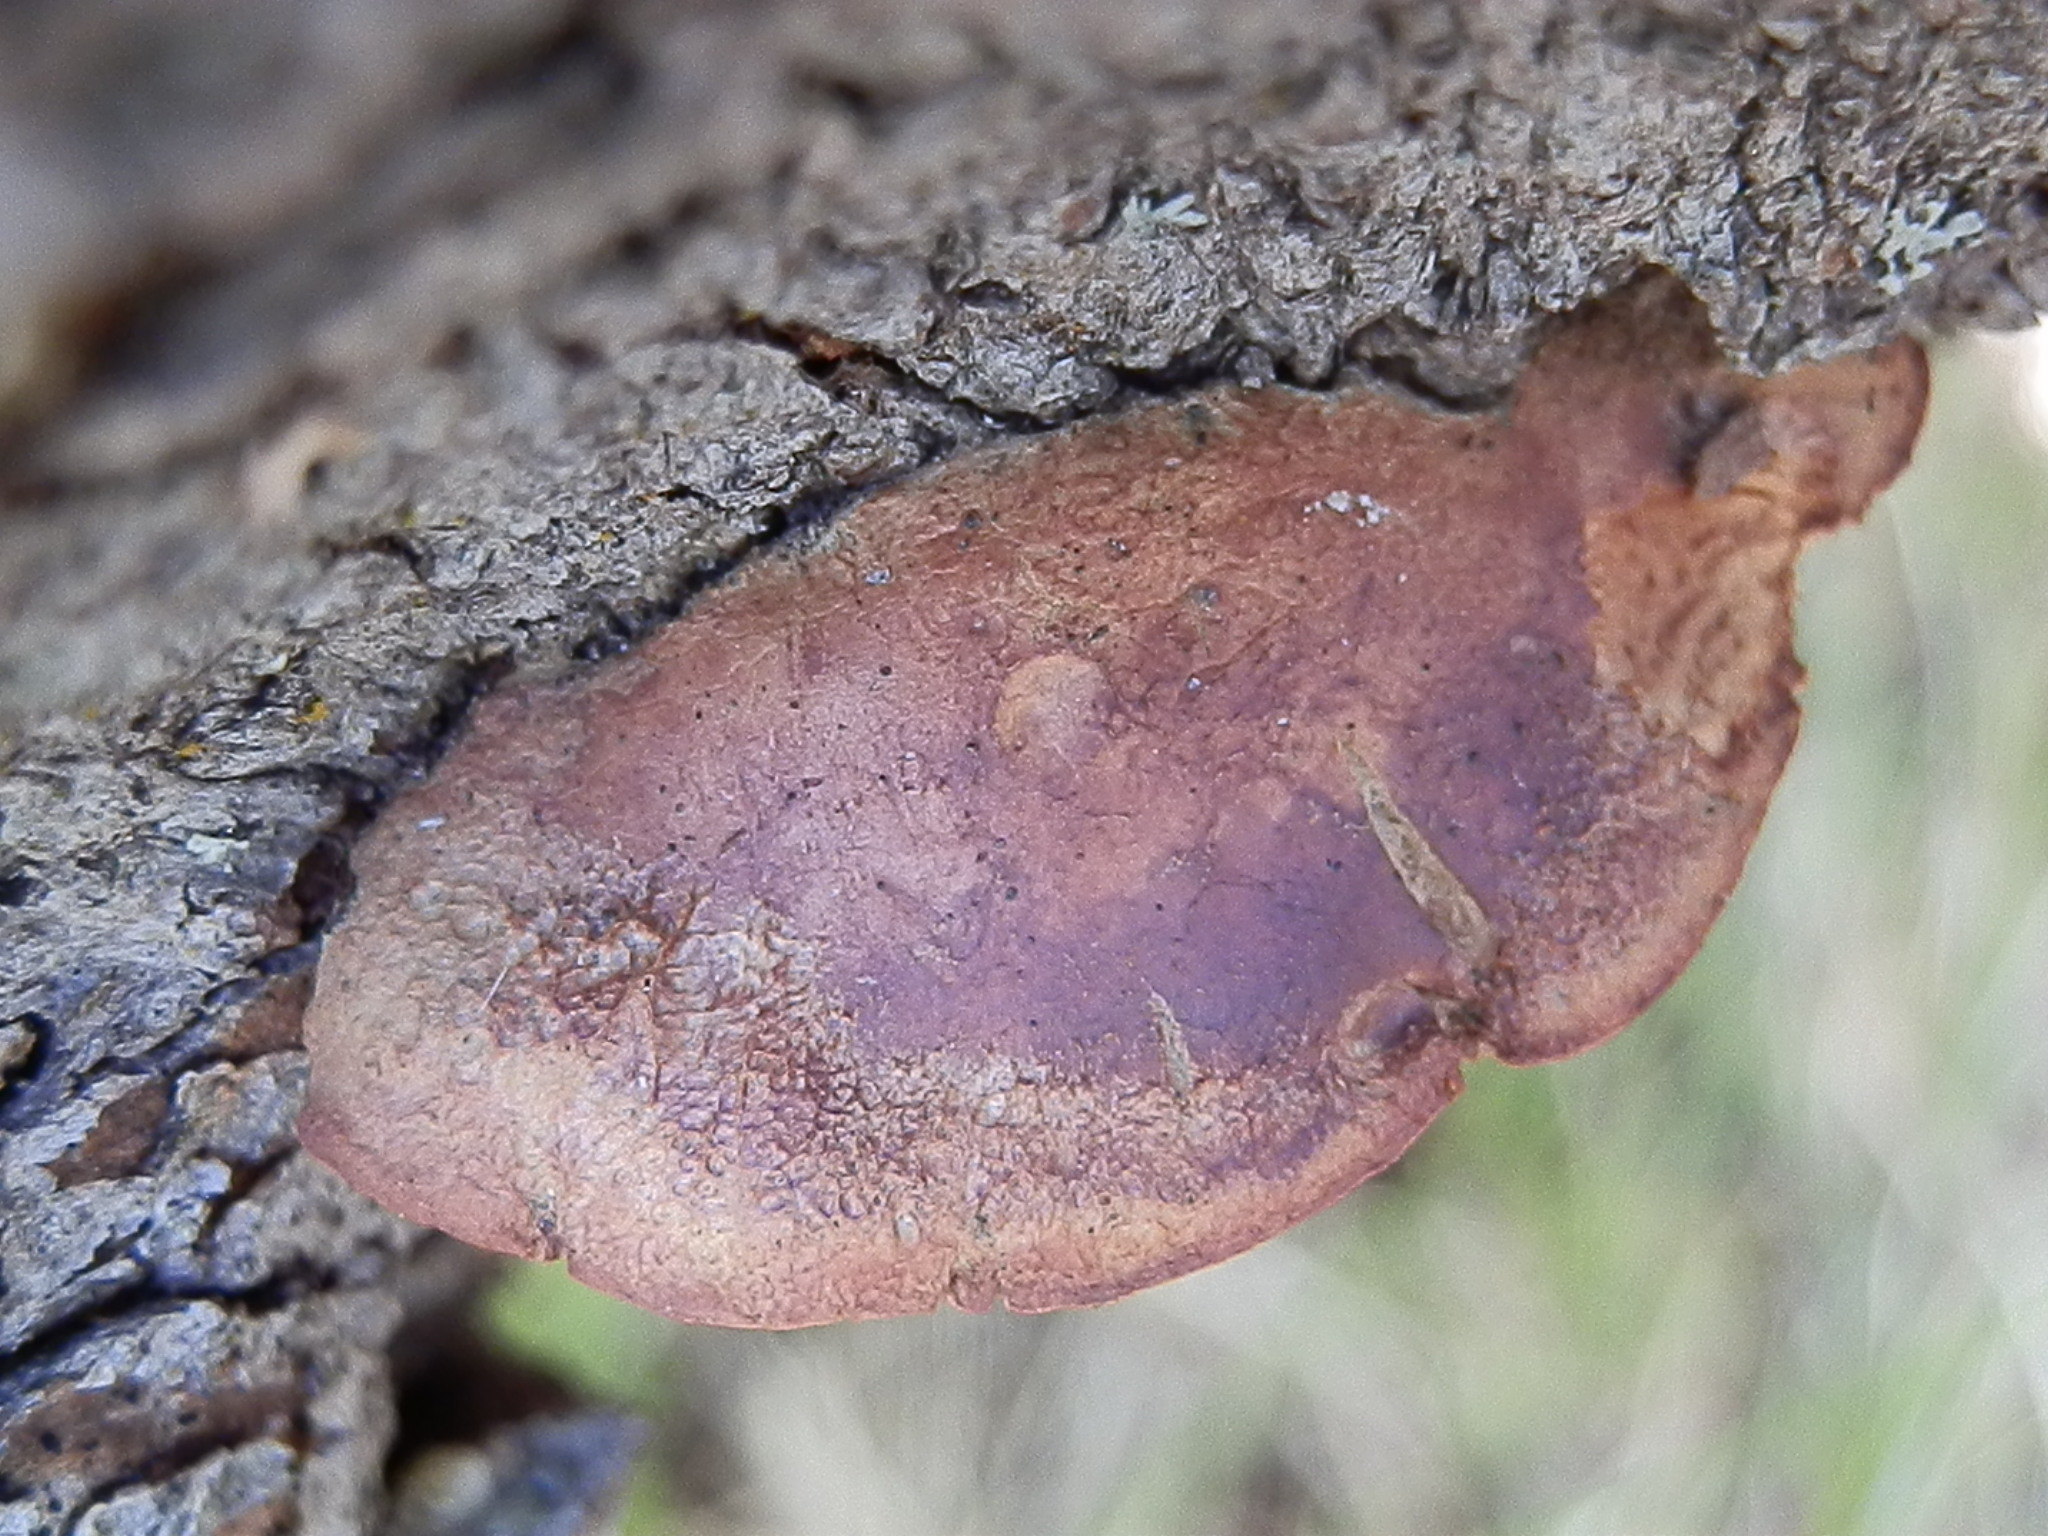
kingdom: Fungi
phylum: Basidiomycota
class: Agaricomycetes
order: Polyporales
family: Phanerochaetaceae
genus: Hapalopilus
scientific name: Hapalopilus rutilans
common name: Tender nesting polypore
